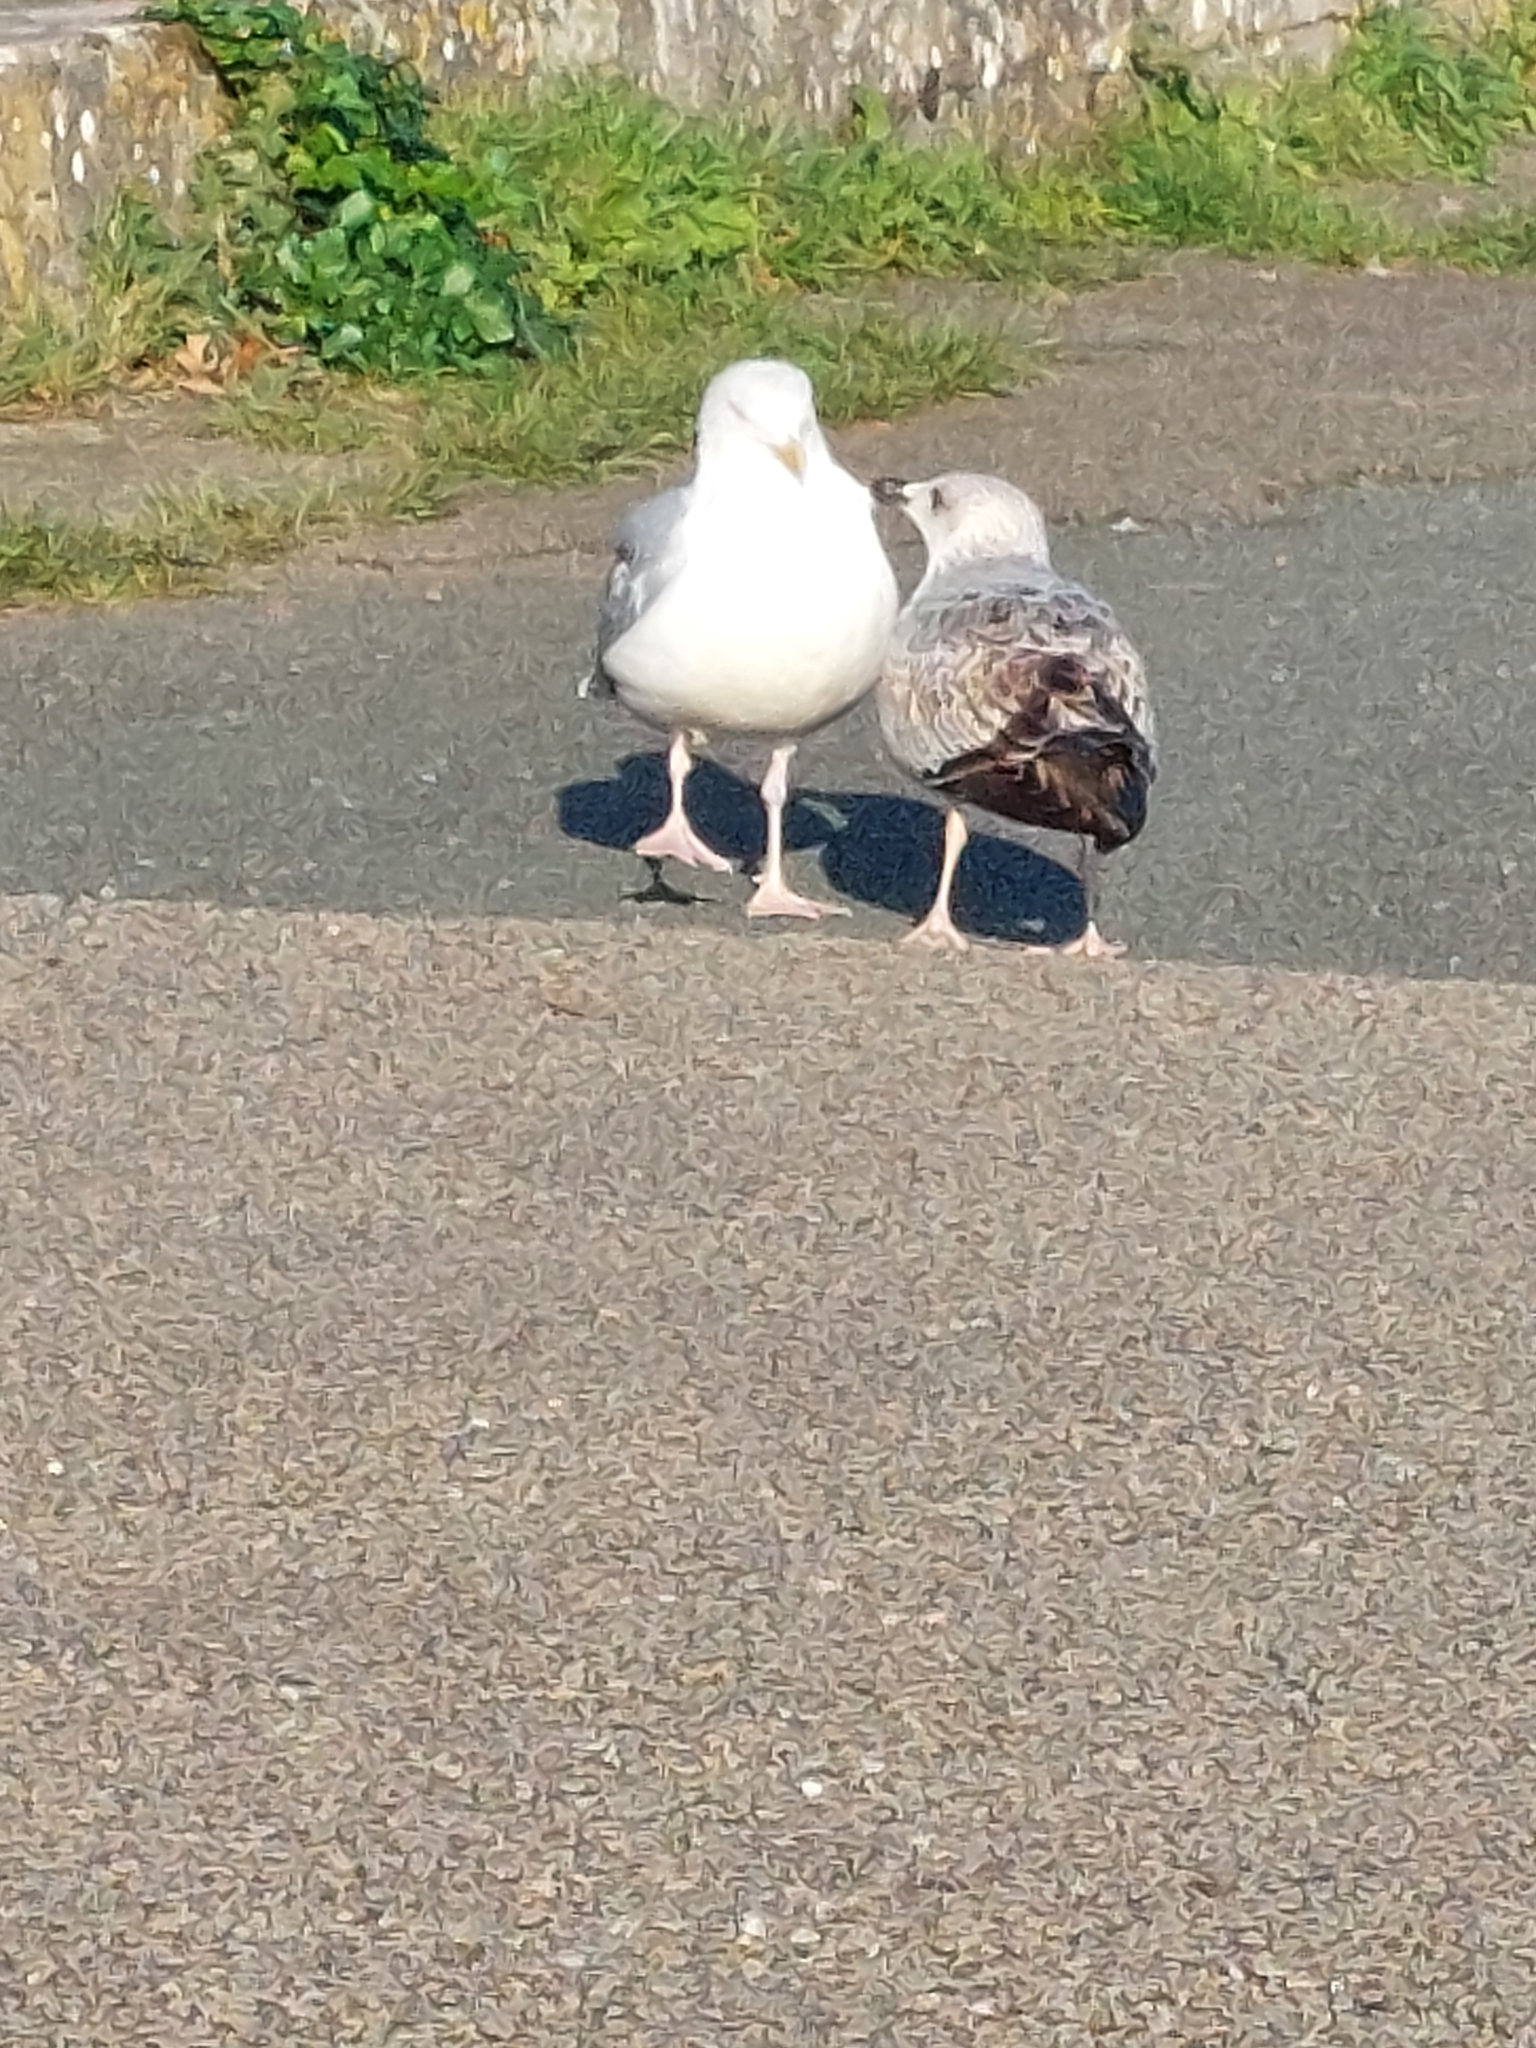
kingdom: Animalia
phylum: Chordata
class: Aves
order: Charadriiformes
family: Laridae
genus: Larus
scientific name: Larus argentatus
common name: Herring gull
